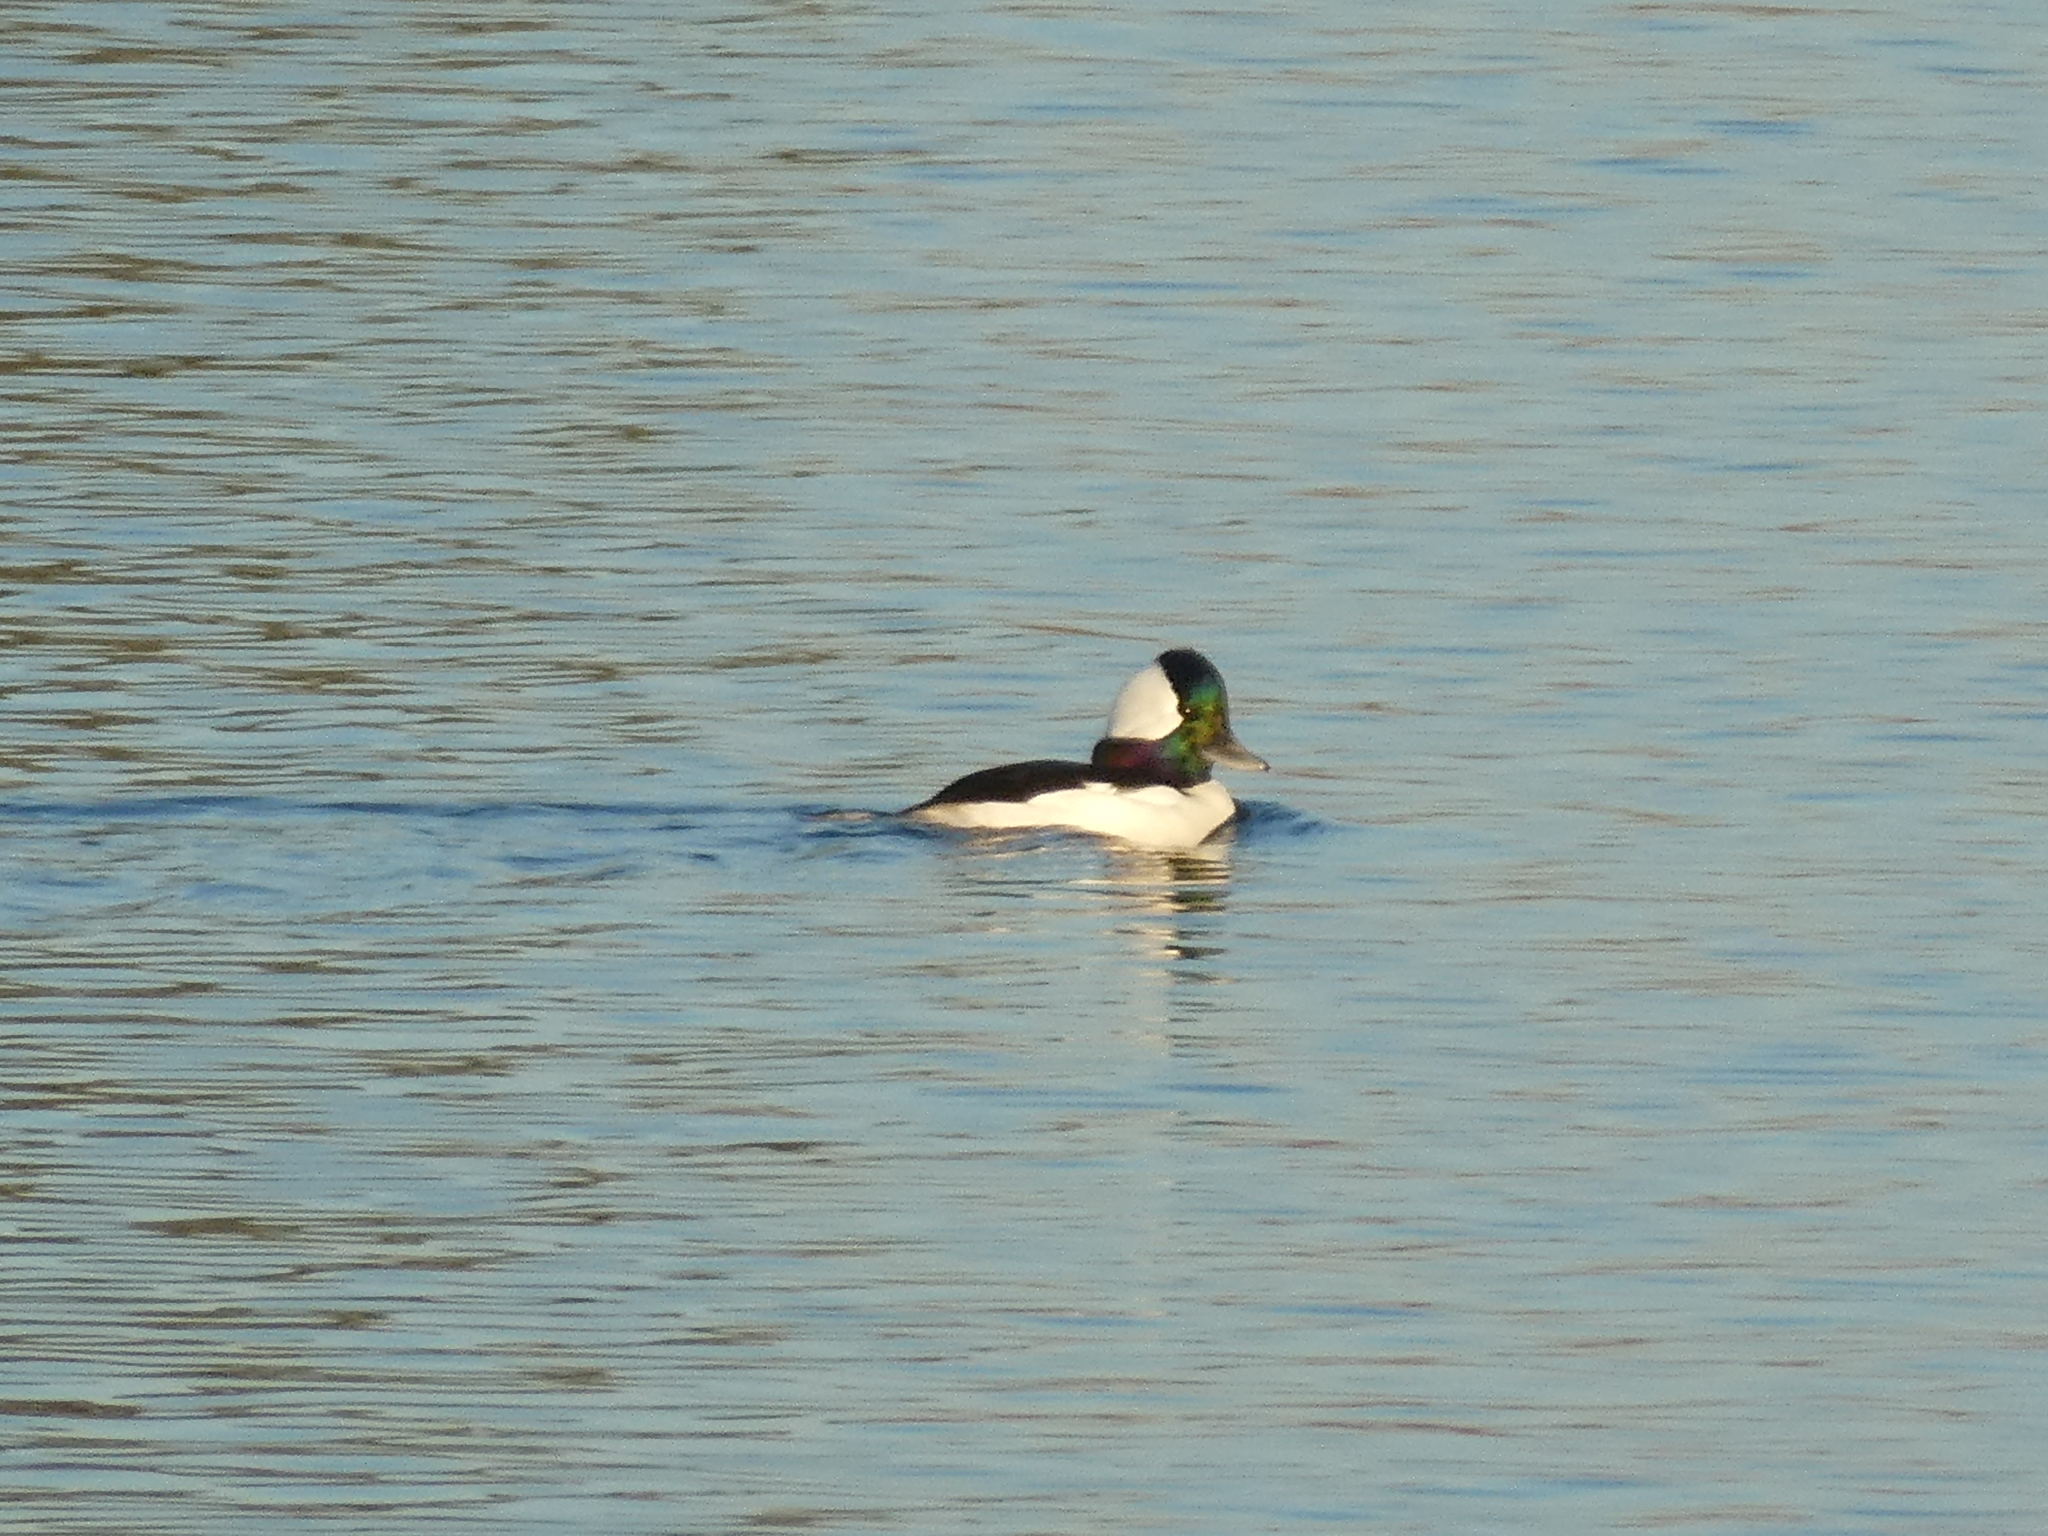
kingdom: Animalia
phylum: Chordata
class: Aves
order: Anseriformes
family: Anatidae
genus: Bucephala
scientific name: Bucephala albeola
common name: Bufflehead
